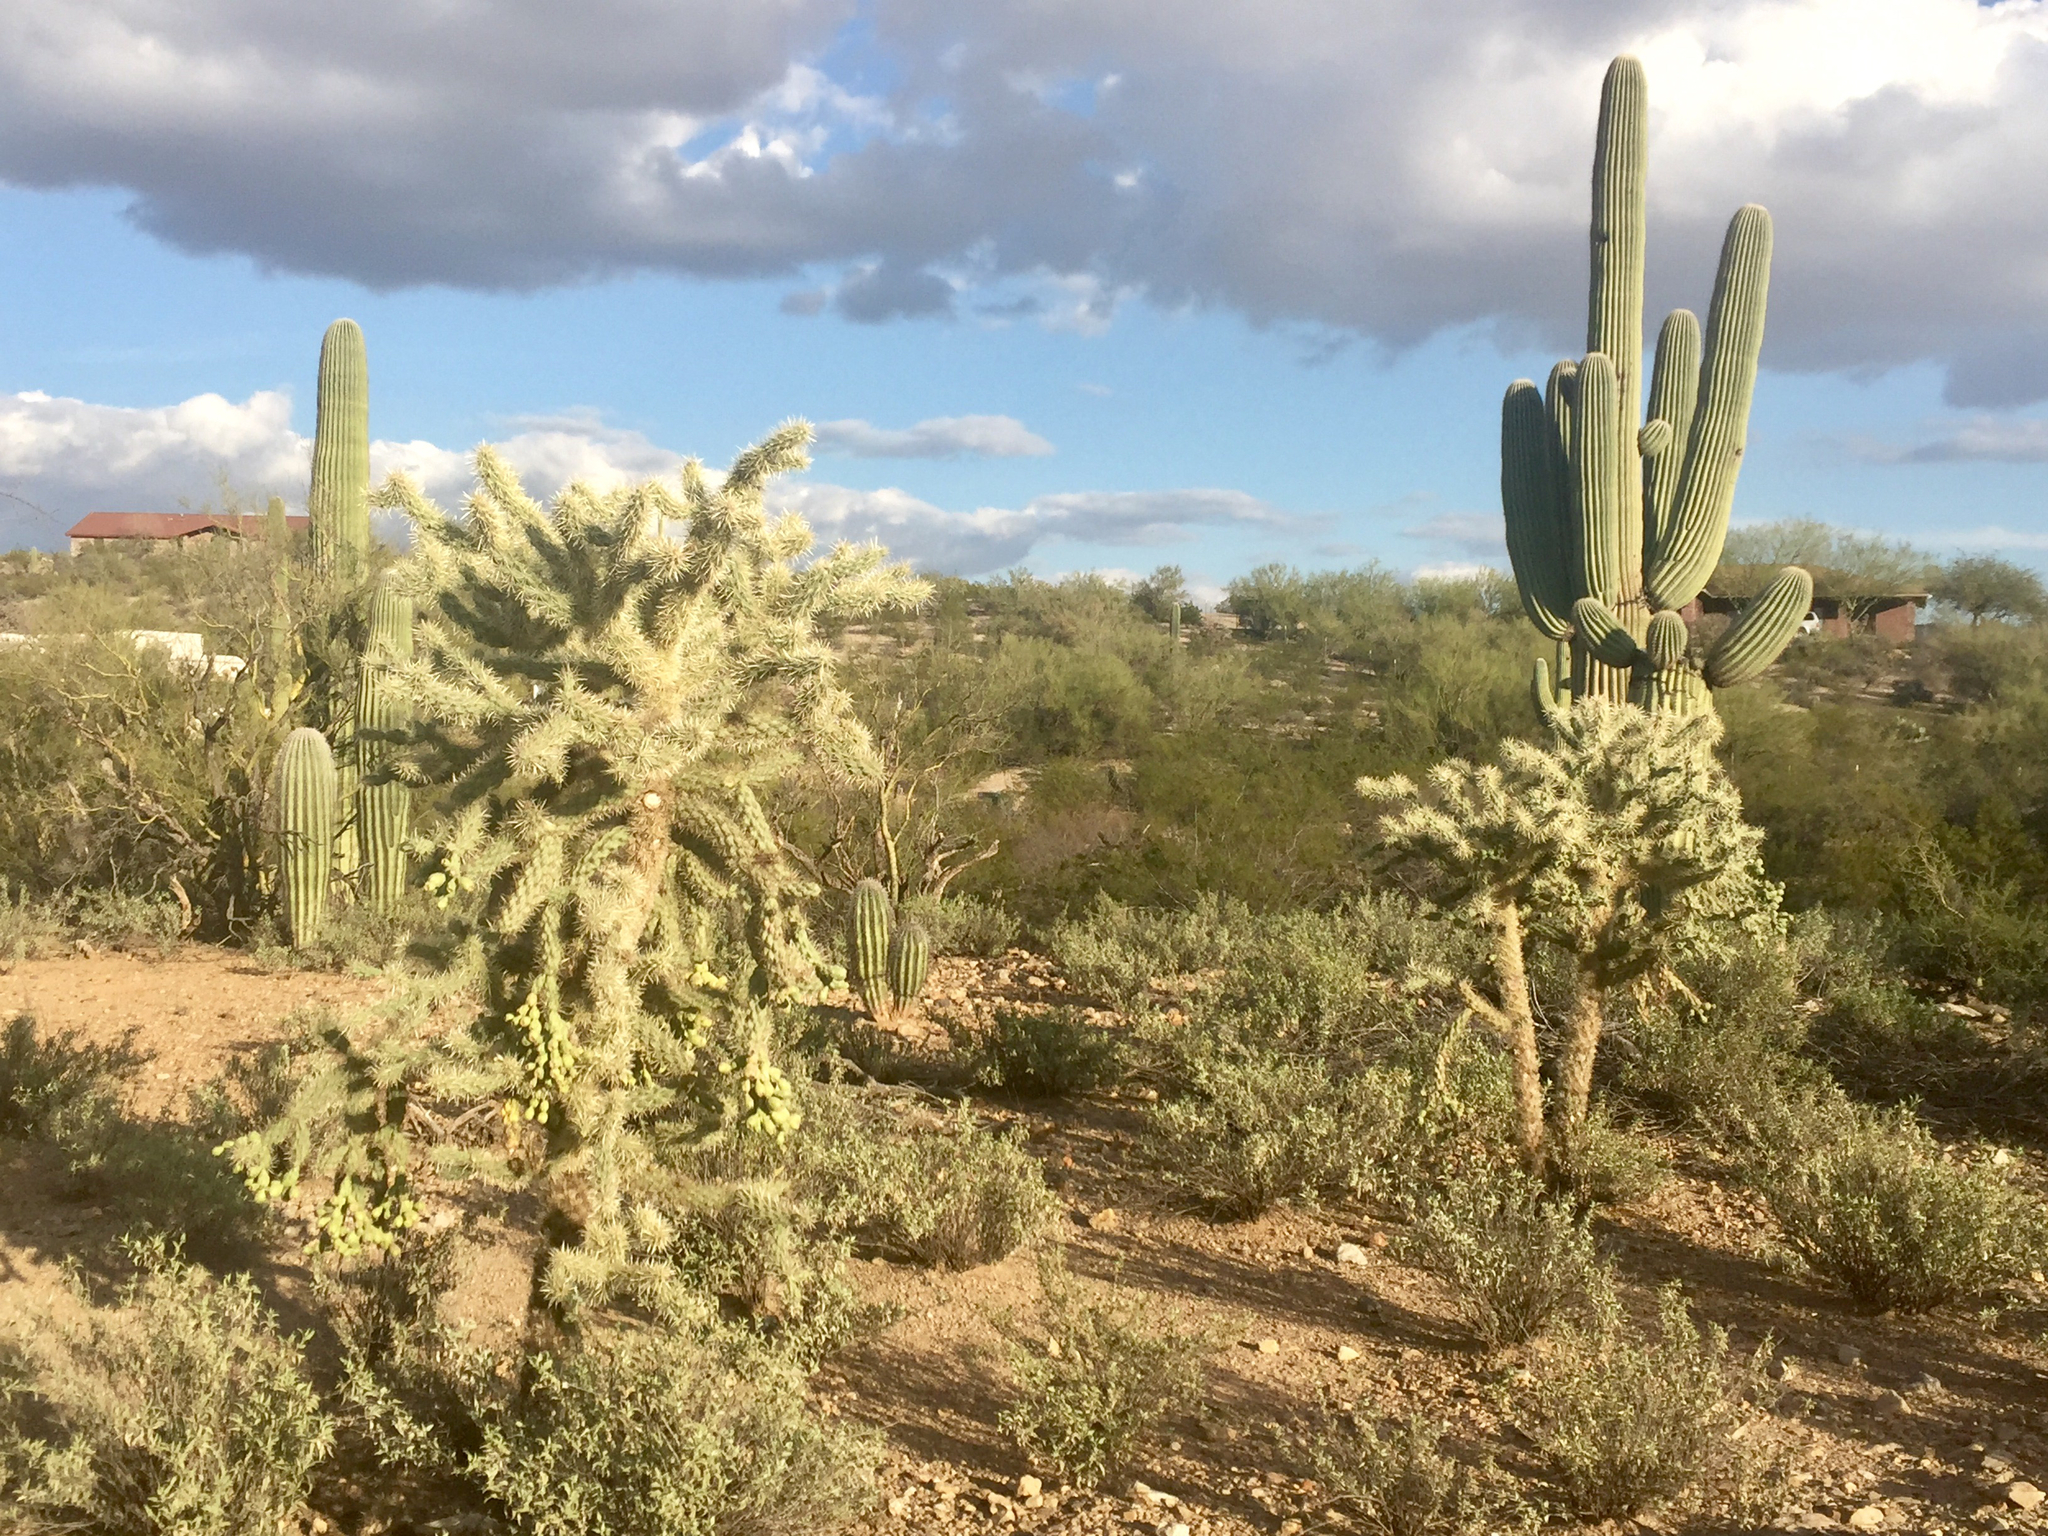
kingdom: Plantae
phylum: Tracheophyta
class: Magnoliopsida
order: Caryophyllales
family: Cactaceae
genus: Cylindropuntia
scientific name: Cylindropuntia fulgida
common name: Jumping cholla
